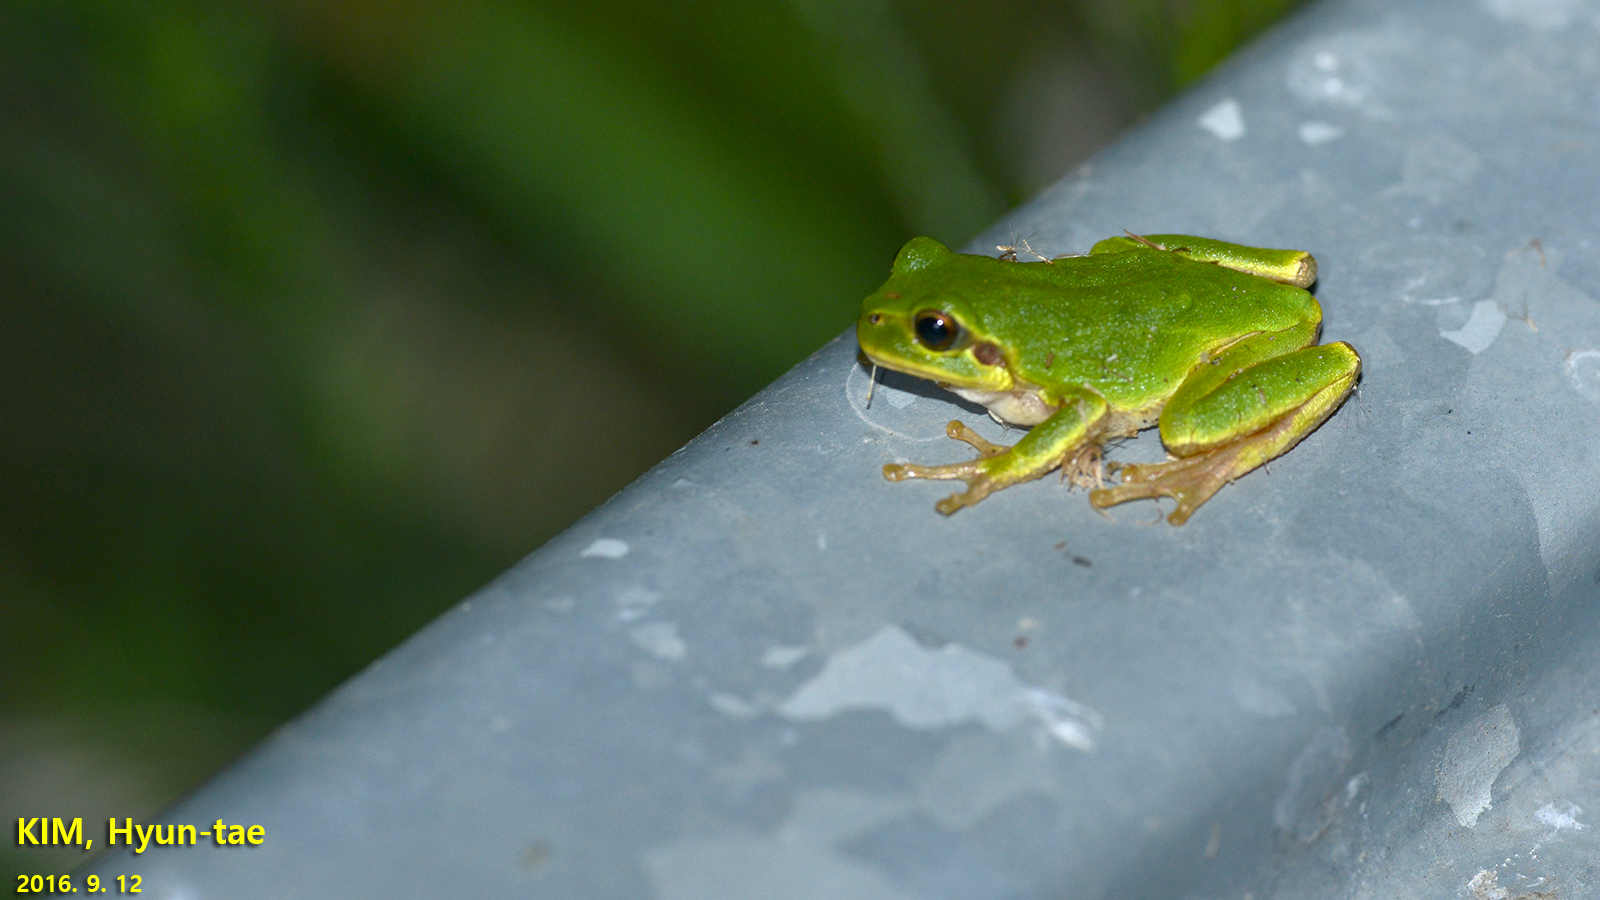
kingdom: Animalia
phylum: Chordata
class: Amphibia
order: Anura
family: Hylidae
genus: Dryophytes
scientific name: Dryophytes japonicus
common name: Japanese treefrog
